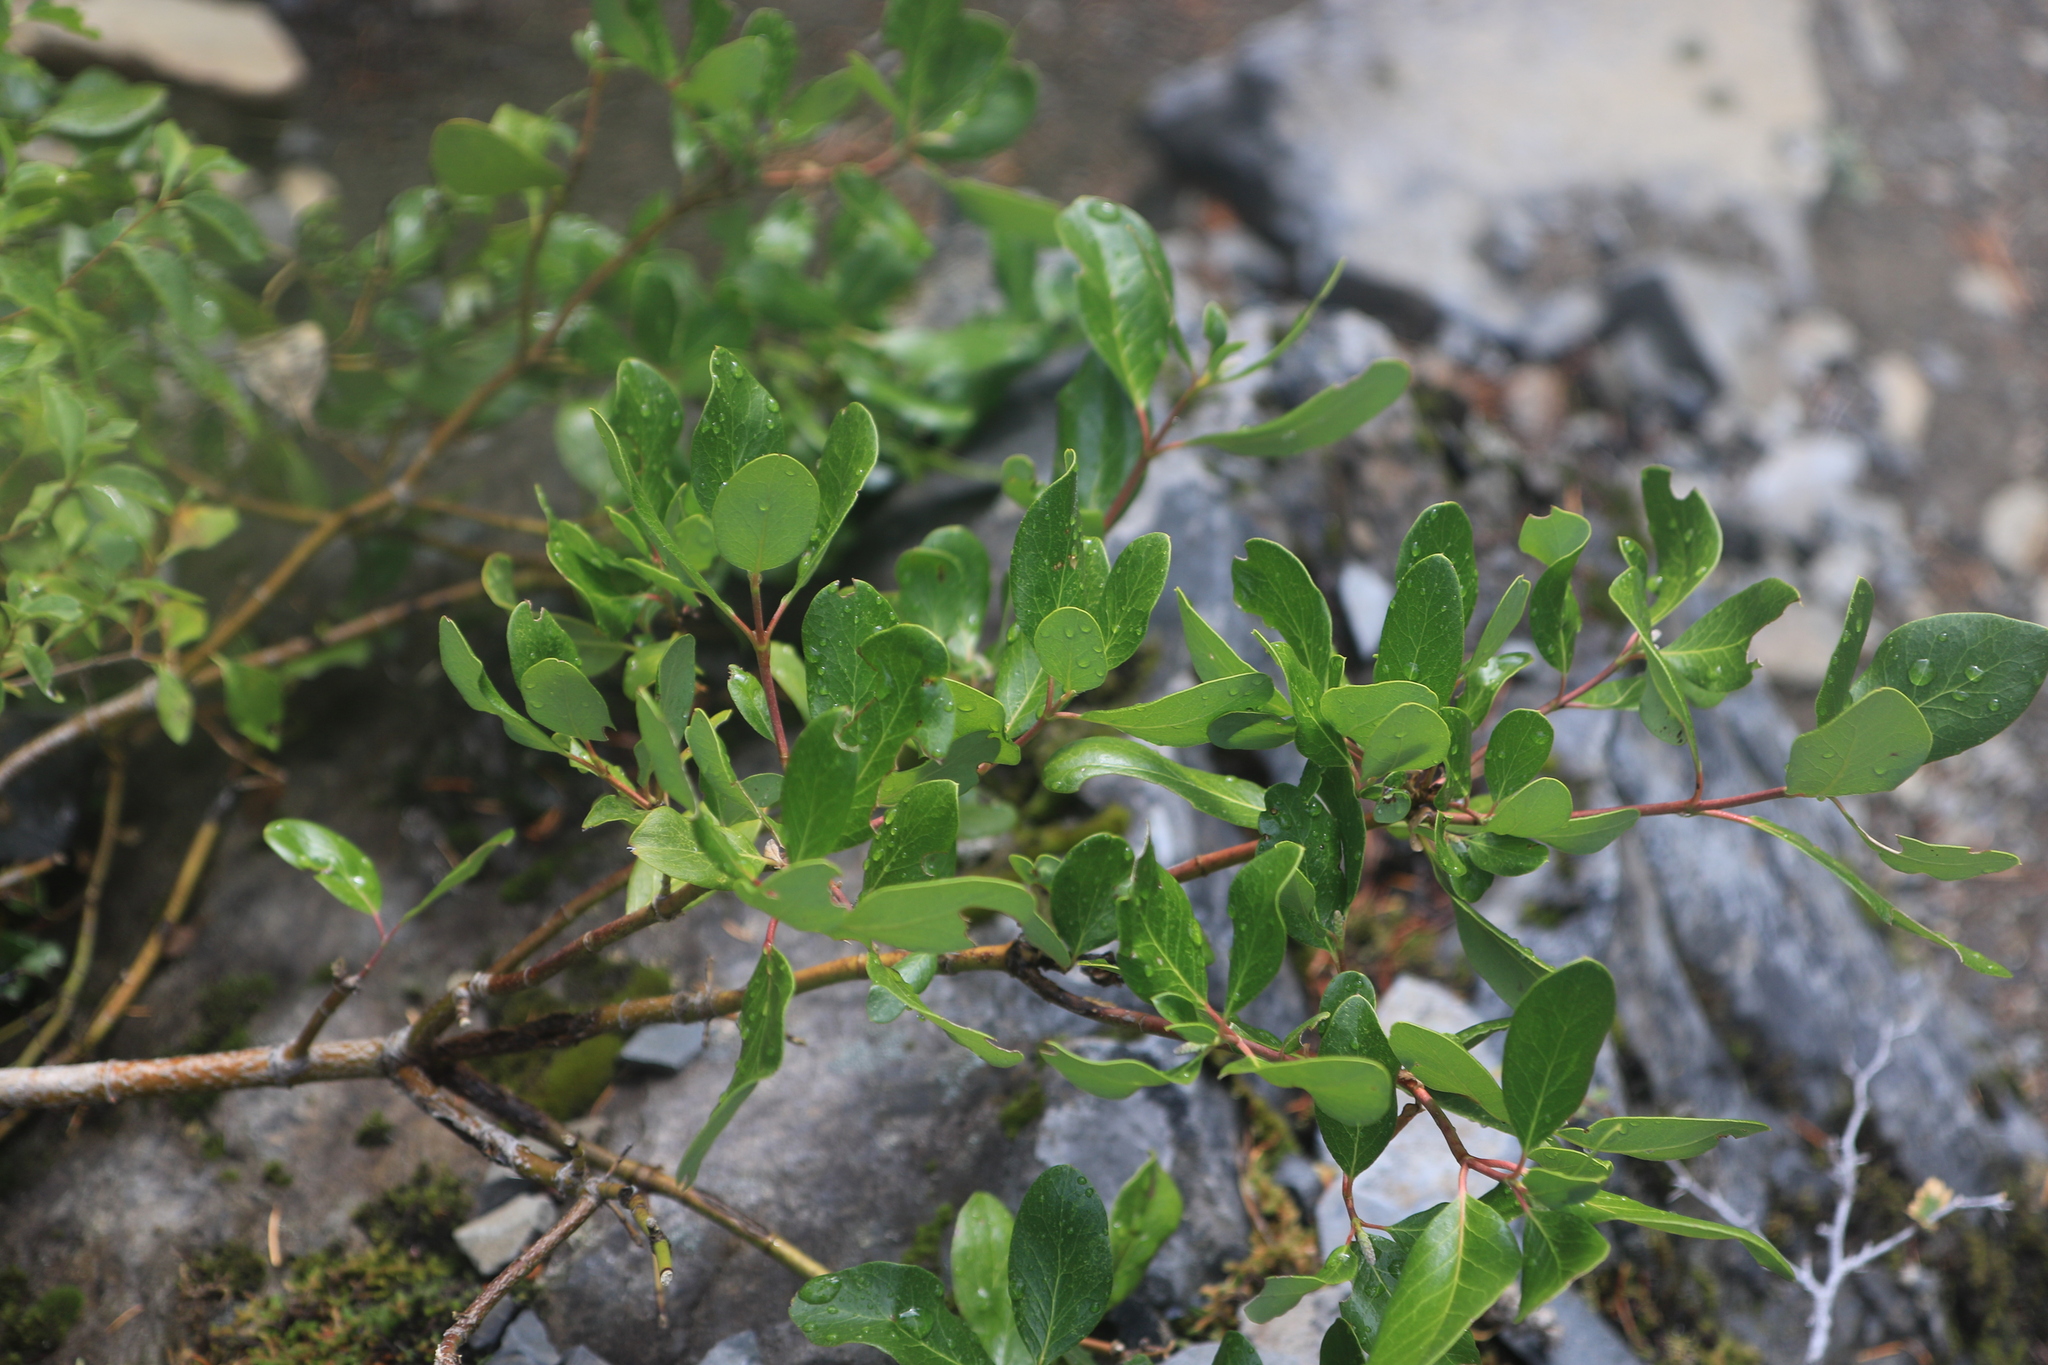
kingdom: Plantae
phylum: Tracheophyta
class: Magnoliopsida
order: Garryales
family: Garryaceae
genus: Garrya
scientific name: Garrya fremontii
